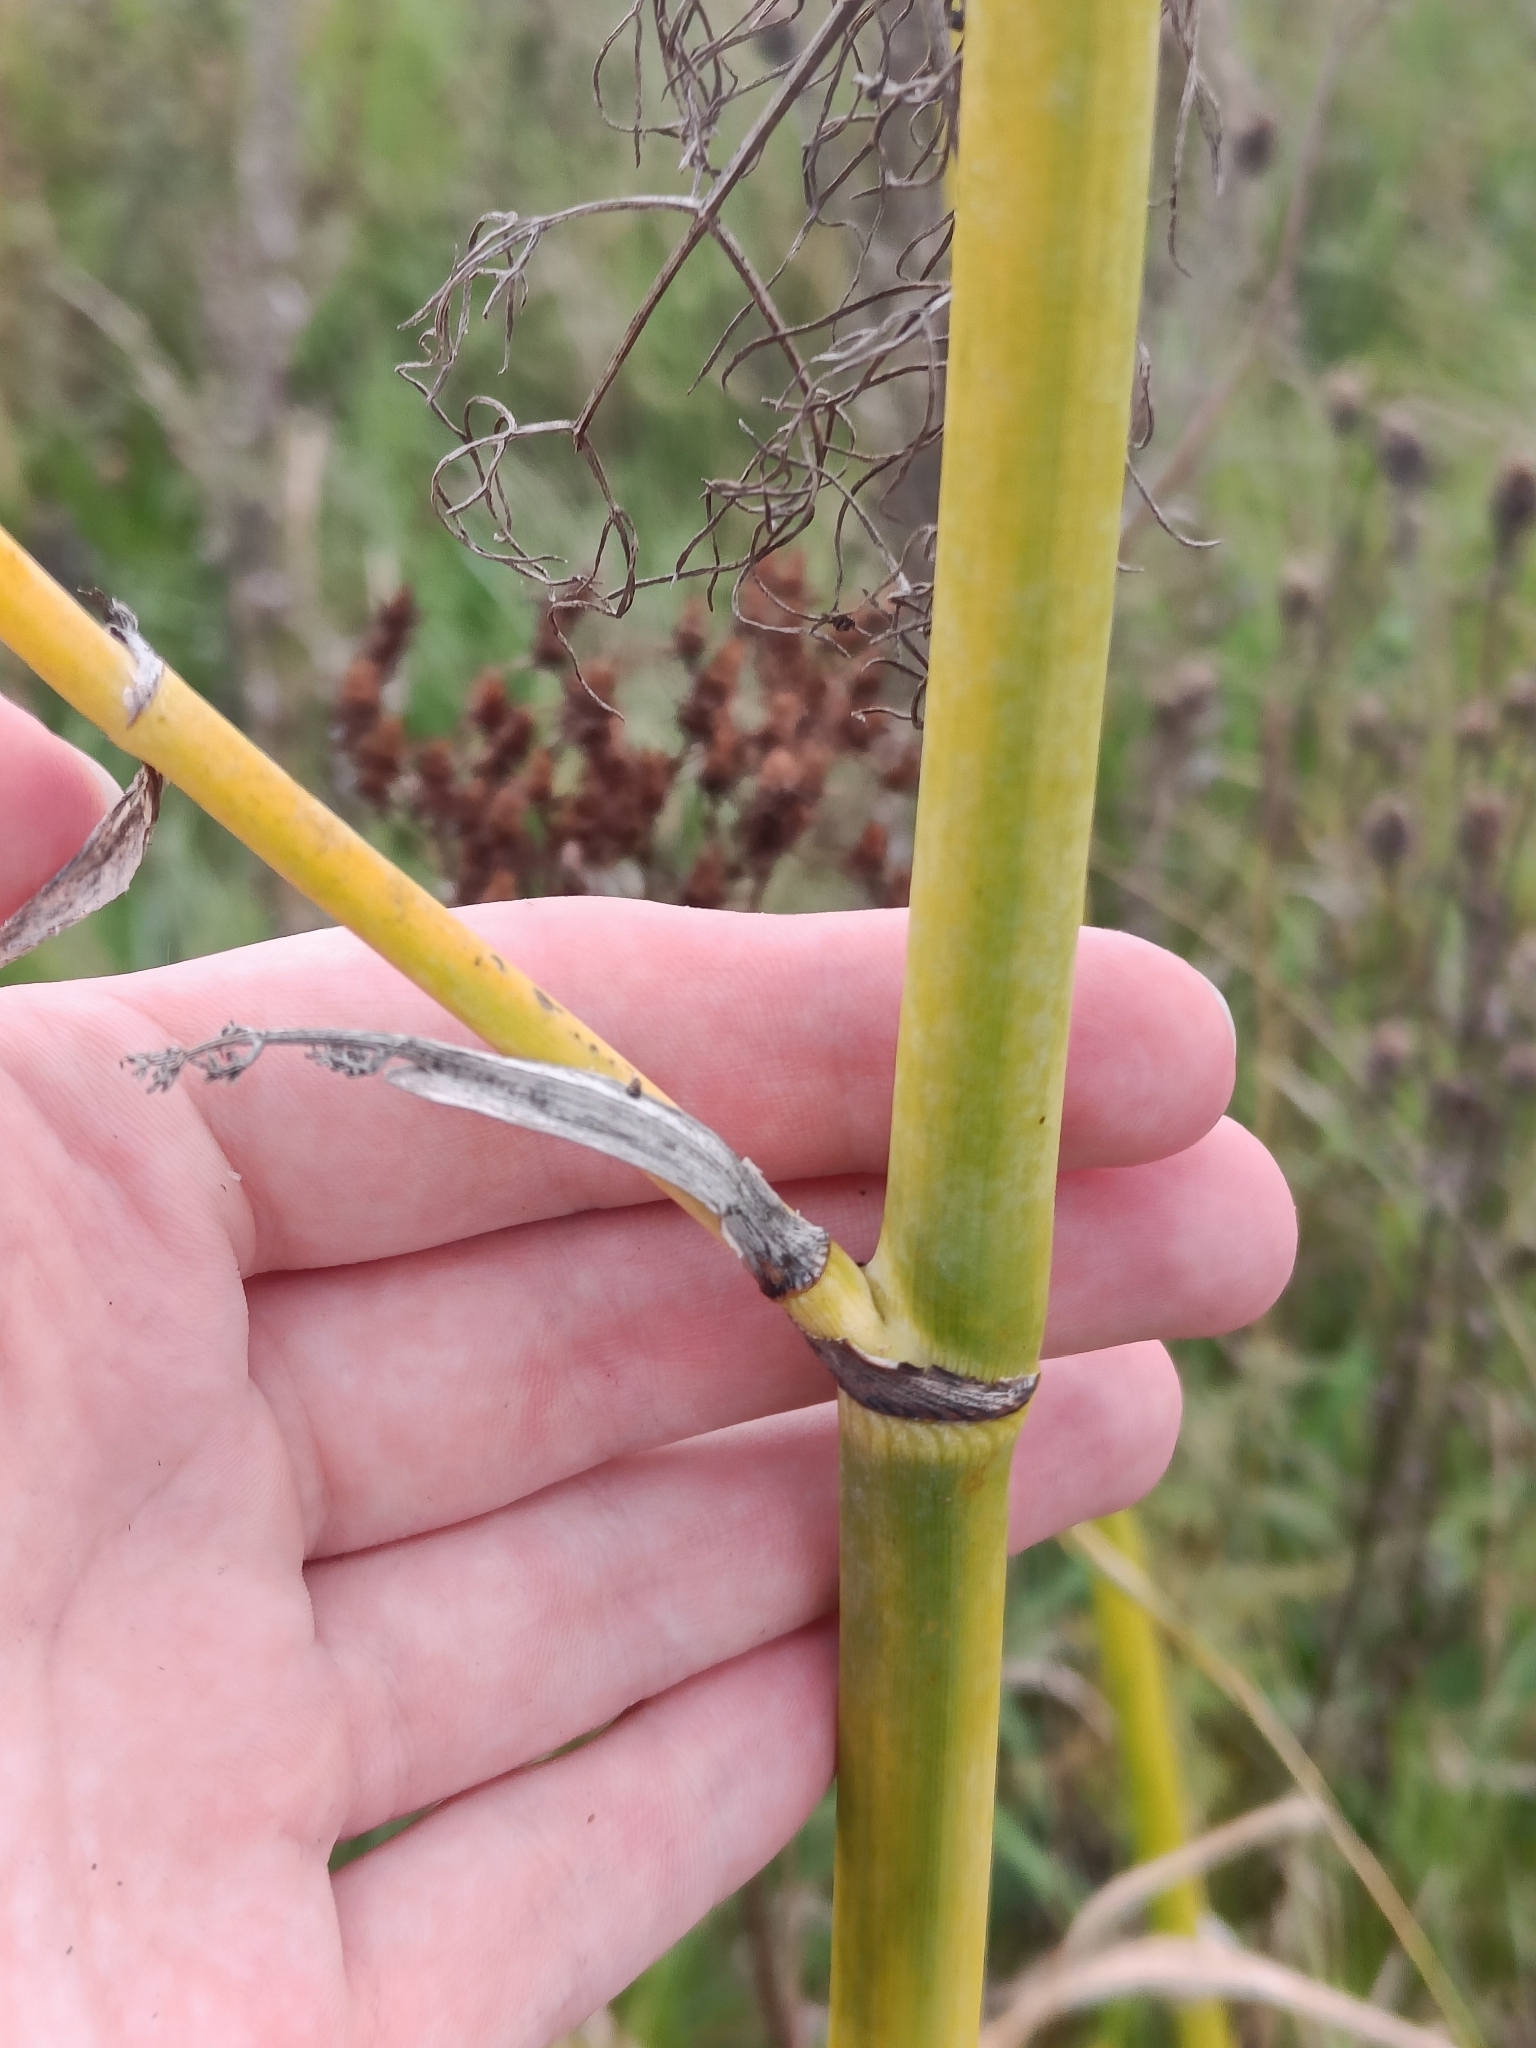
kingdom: Plantae
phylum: Tracheophyta
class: Magnoliopsida
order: Apiales
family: Apiaceae
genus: Foeniculum
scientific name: Foeniculum vulgare
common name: Fennel
